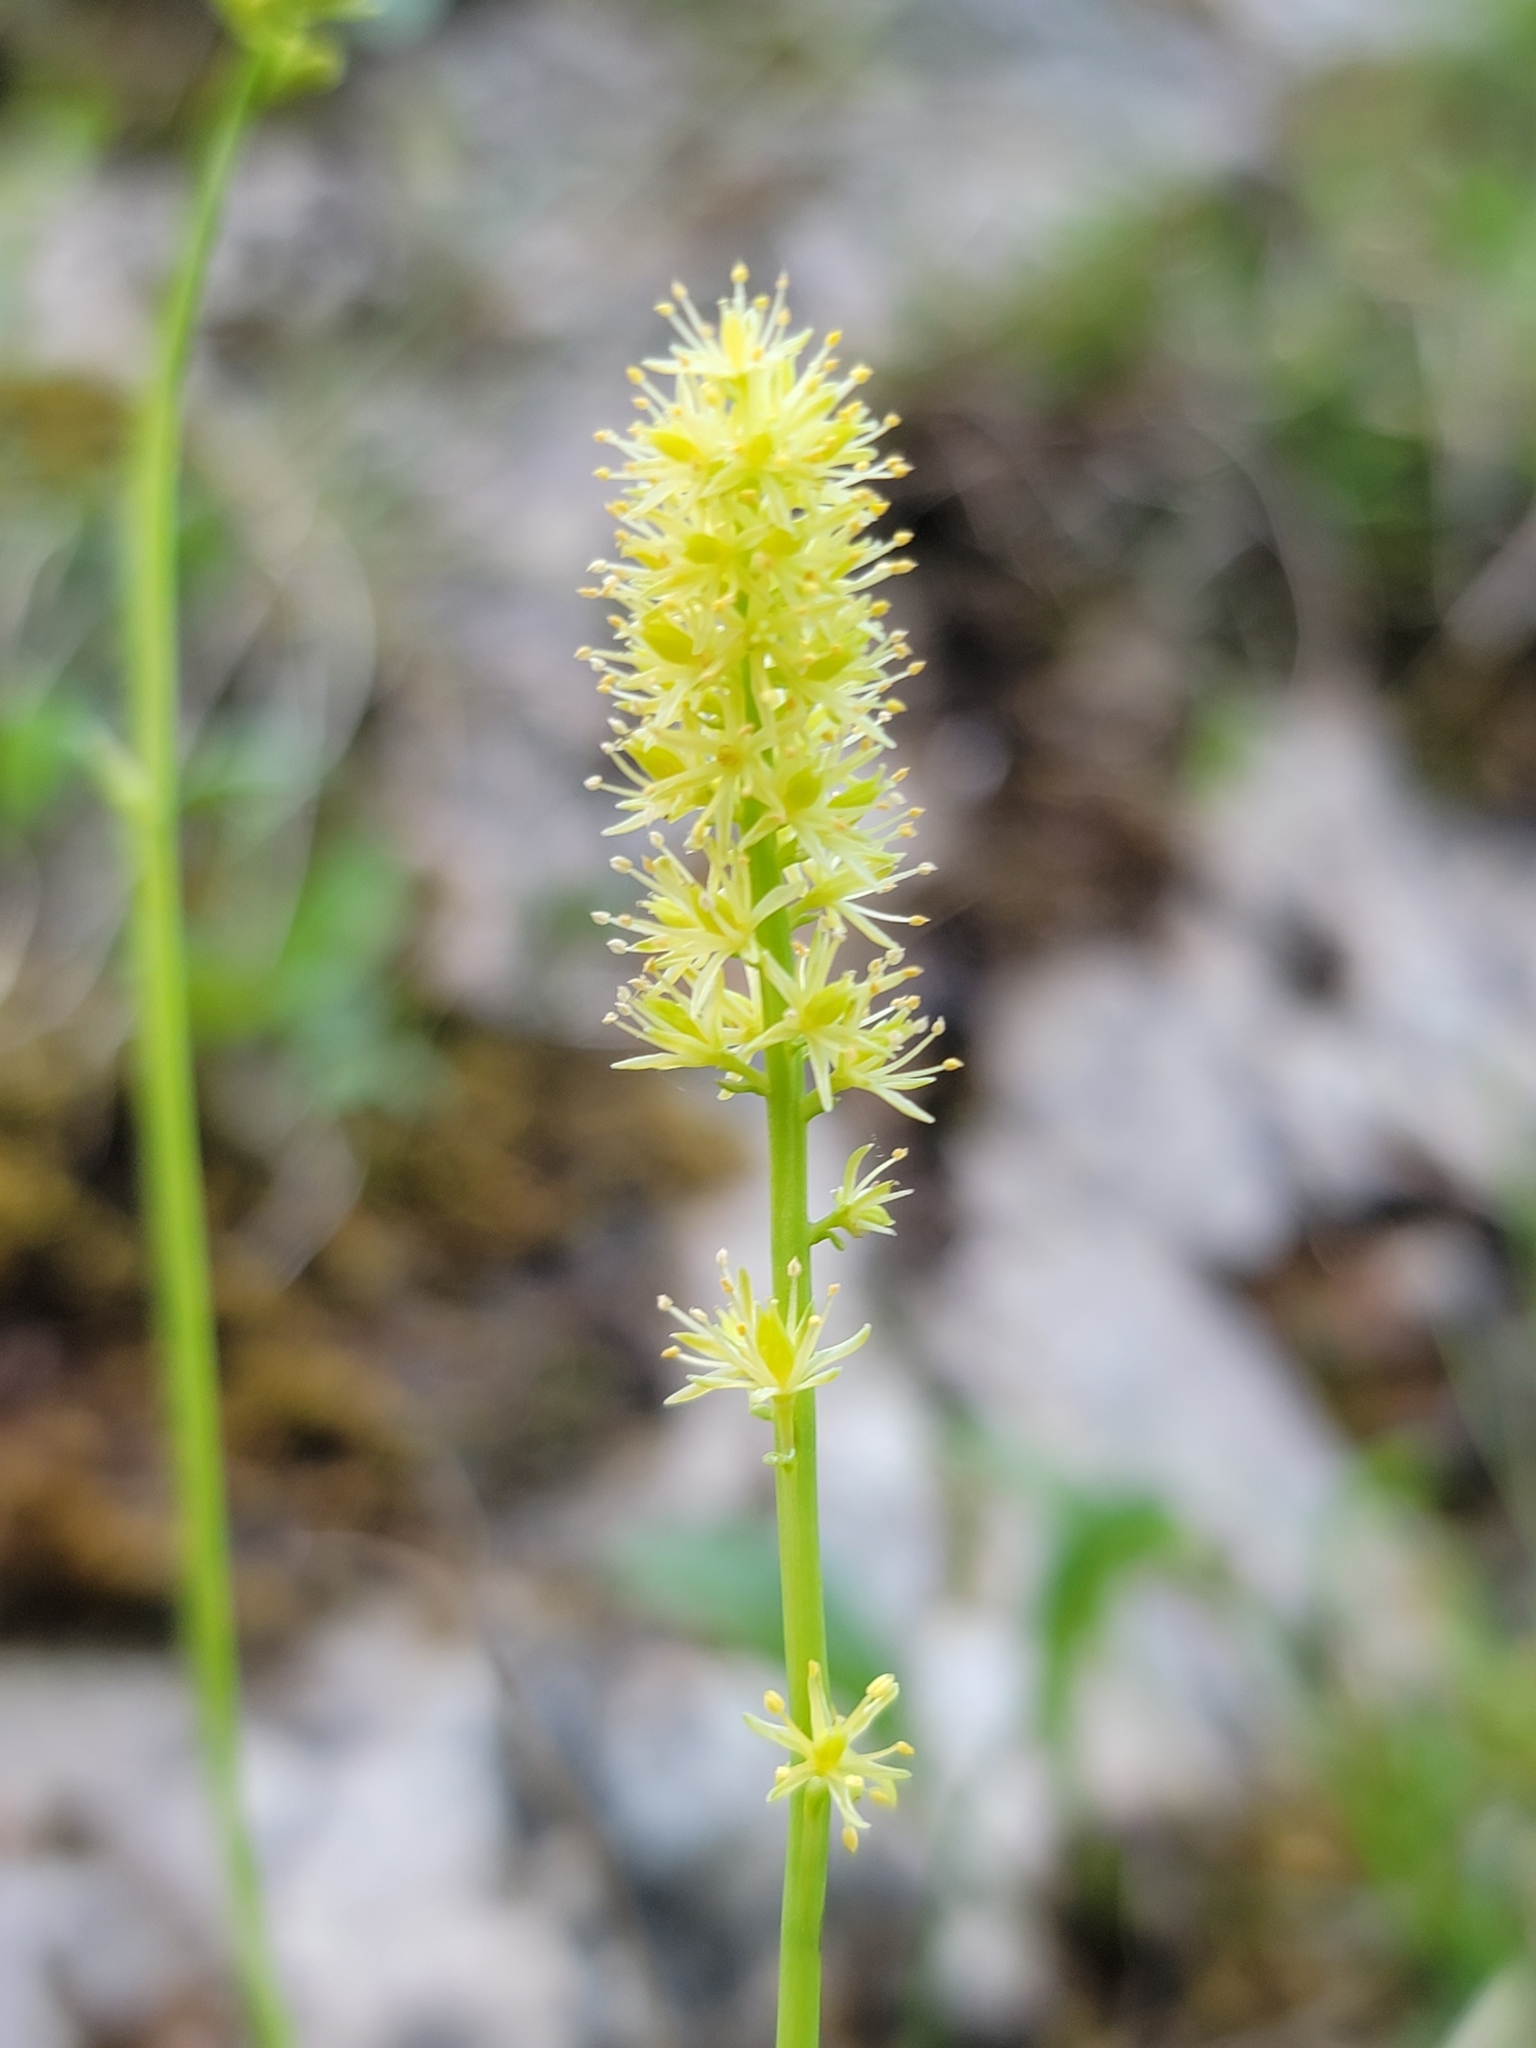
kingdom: Plantae
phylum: Tracheophyta
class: Liliopsida
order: Alismatales
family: Tofieldiaceae
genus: Tofieldia
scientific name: Tofieldia calyculata
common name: German-asphodel
